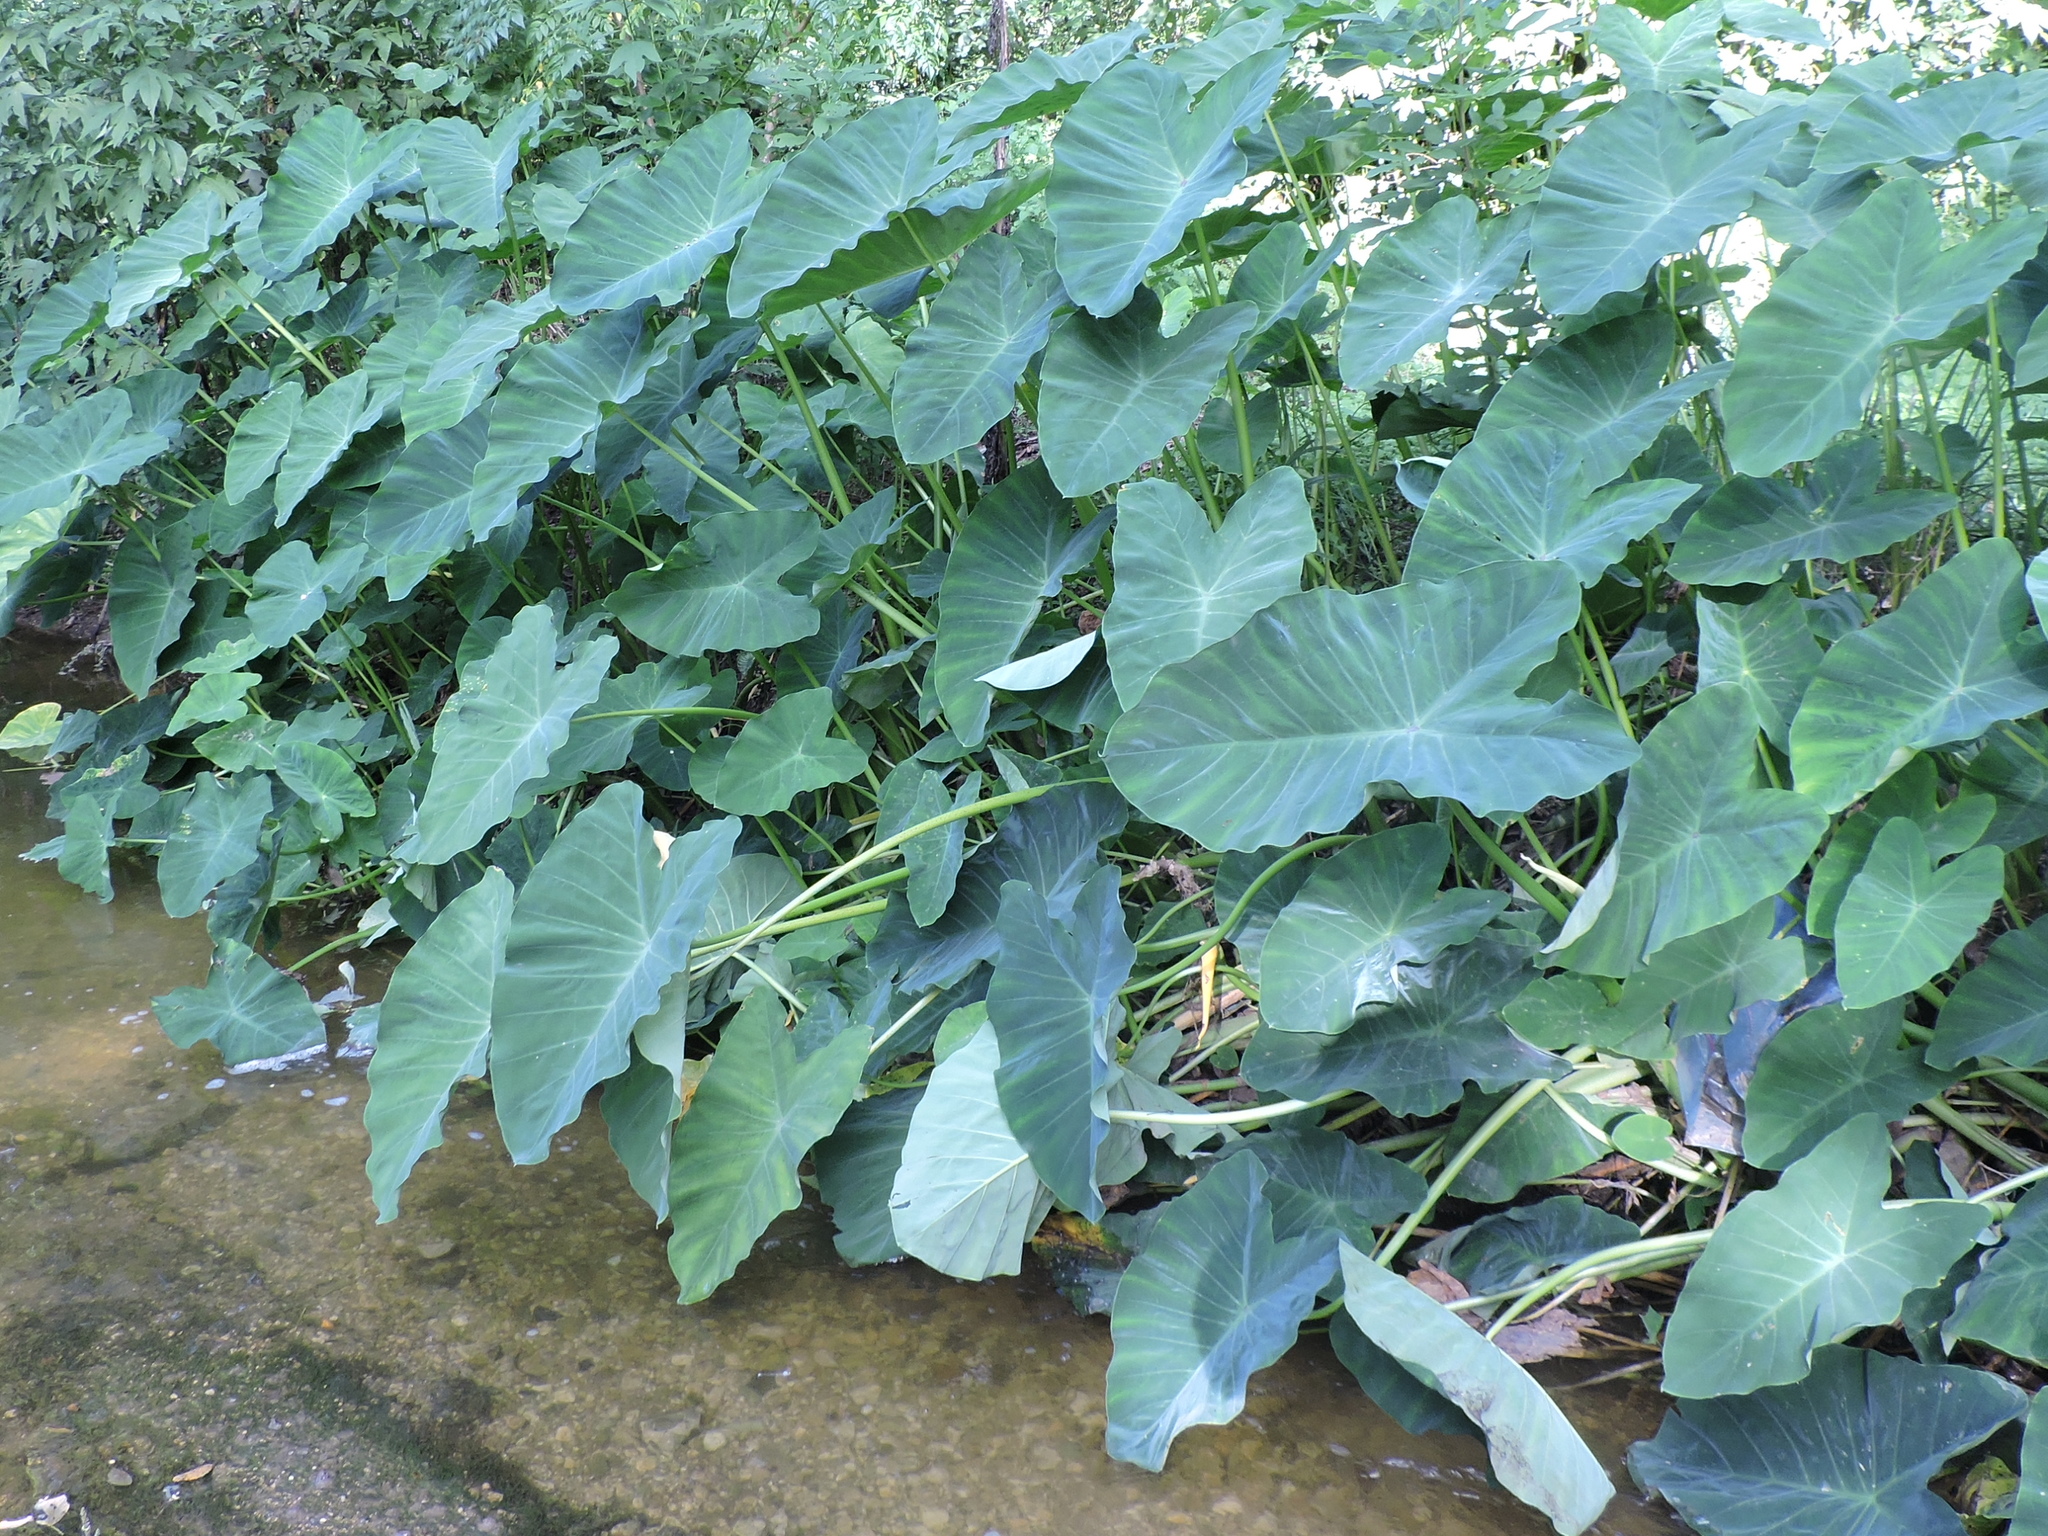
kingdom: Plantae
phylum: Tracheophyta
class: Liliopsida
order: Alismatales
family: Araceae
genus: Colocasia
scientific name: Colocasia esculenta
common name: Taro
